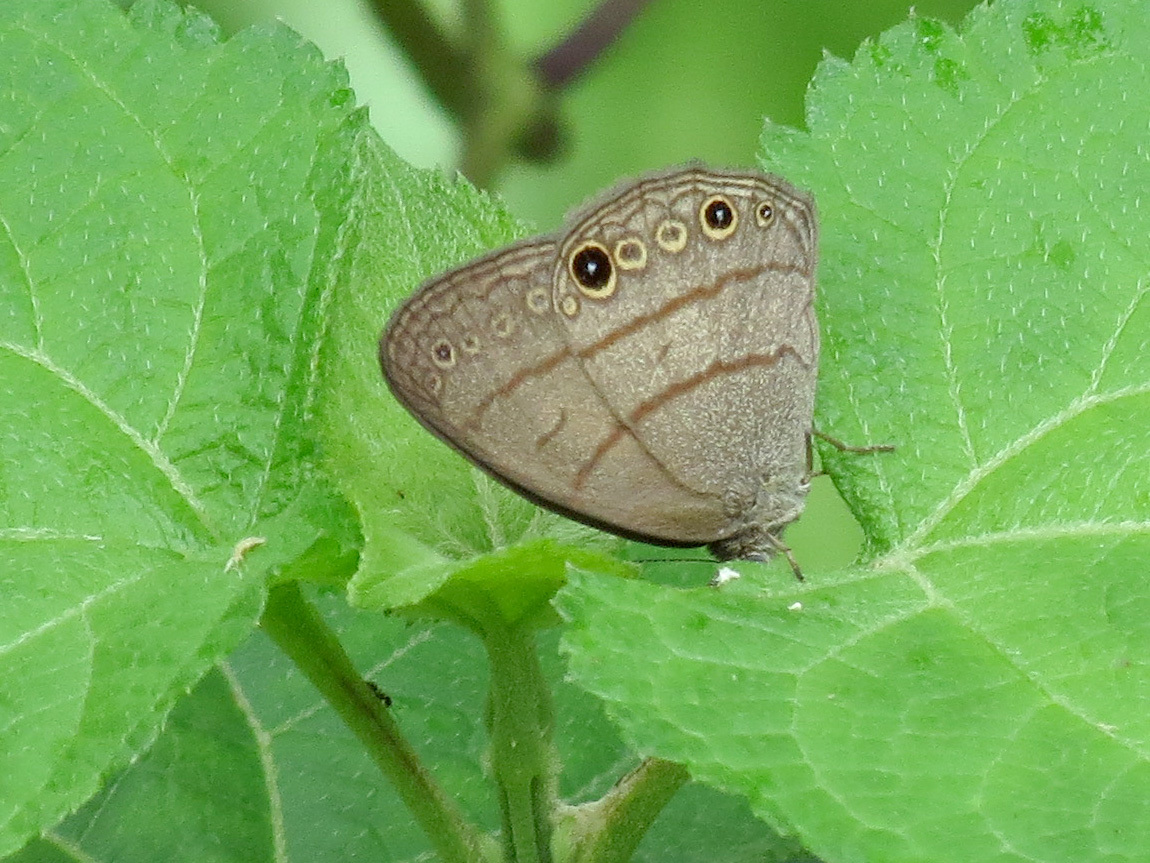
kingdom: Animalia
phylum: Arthropoda
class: Insecta
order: Lepidoptera
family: Nymphalidae
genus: Hermeuptychia
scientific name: Hermeuptychia hermes
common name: Hermes satyr
